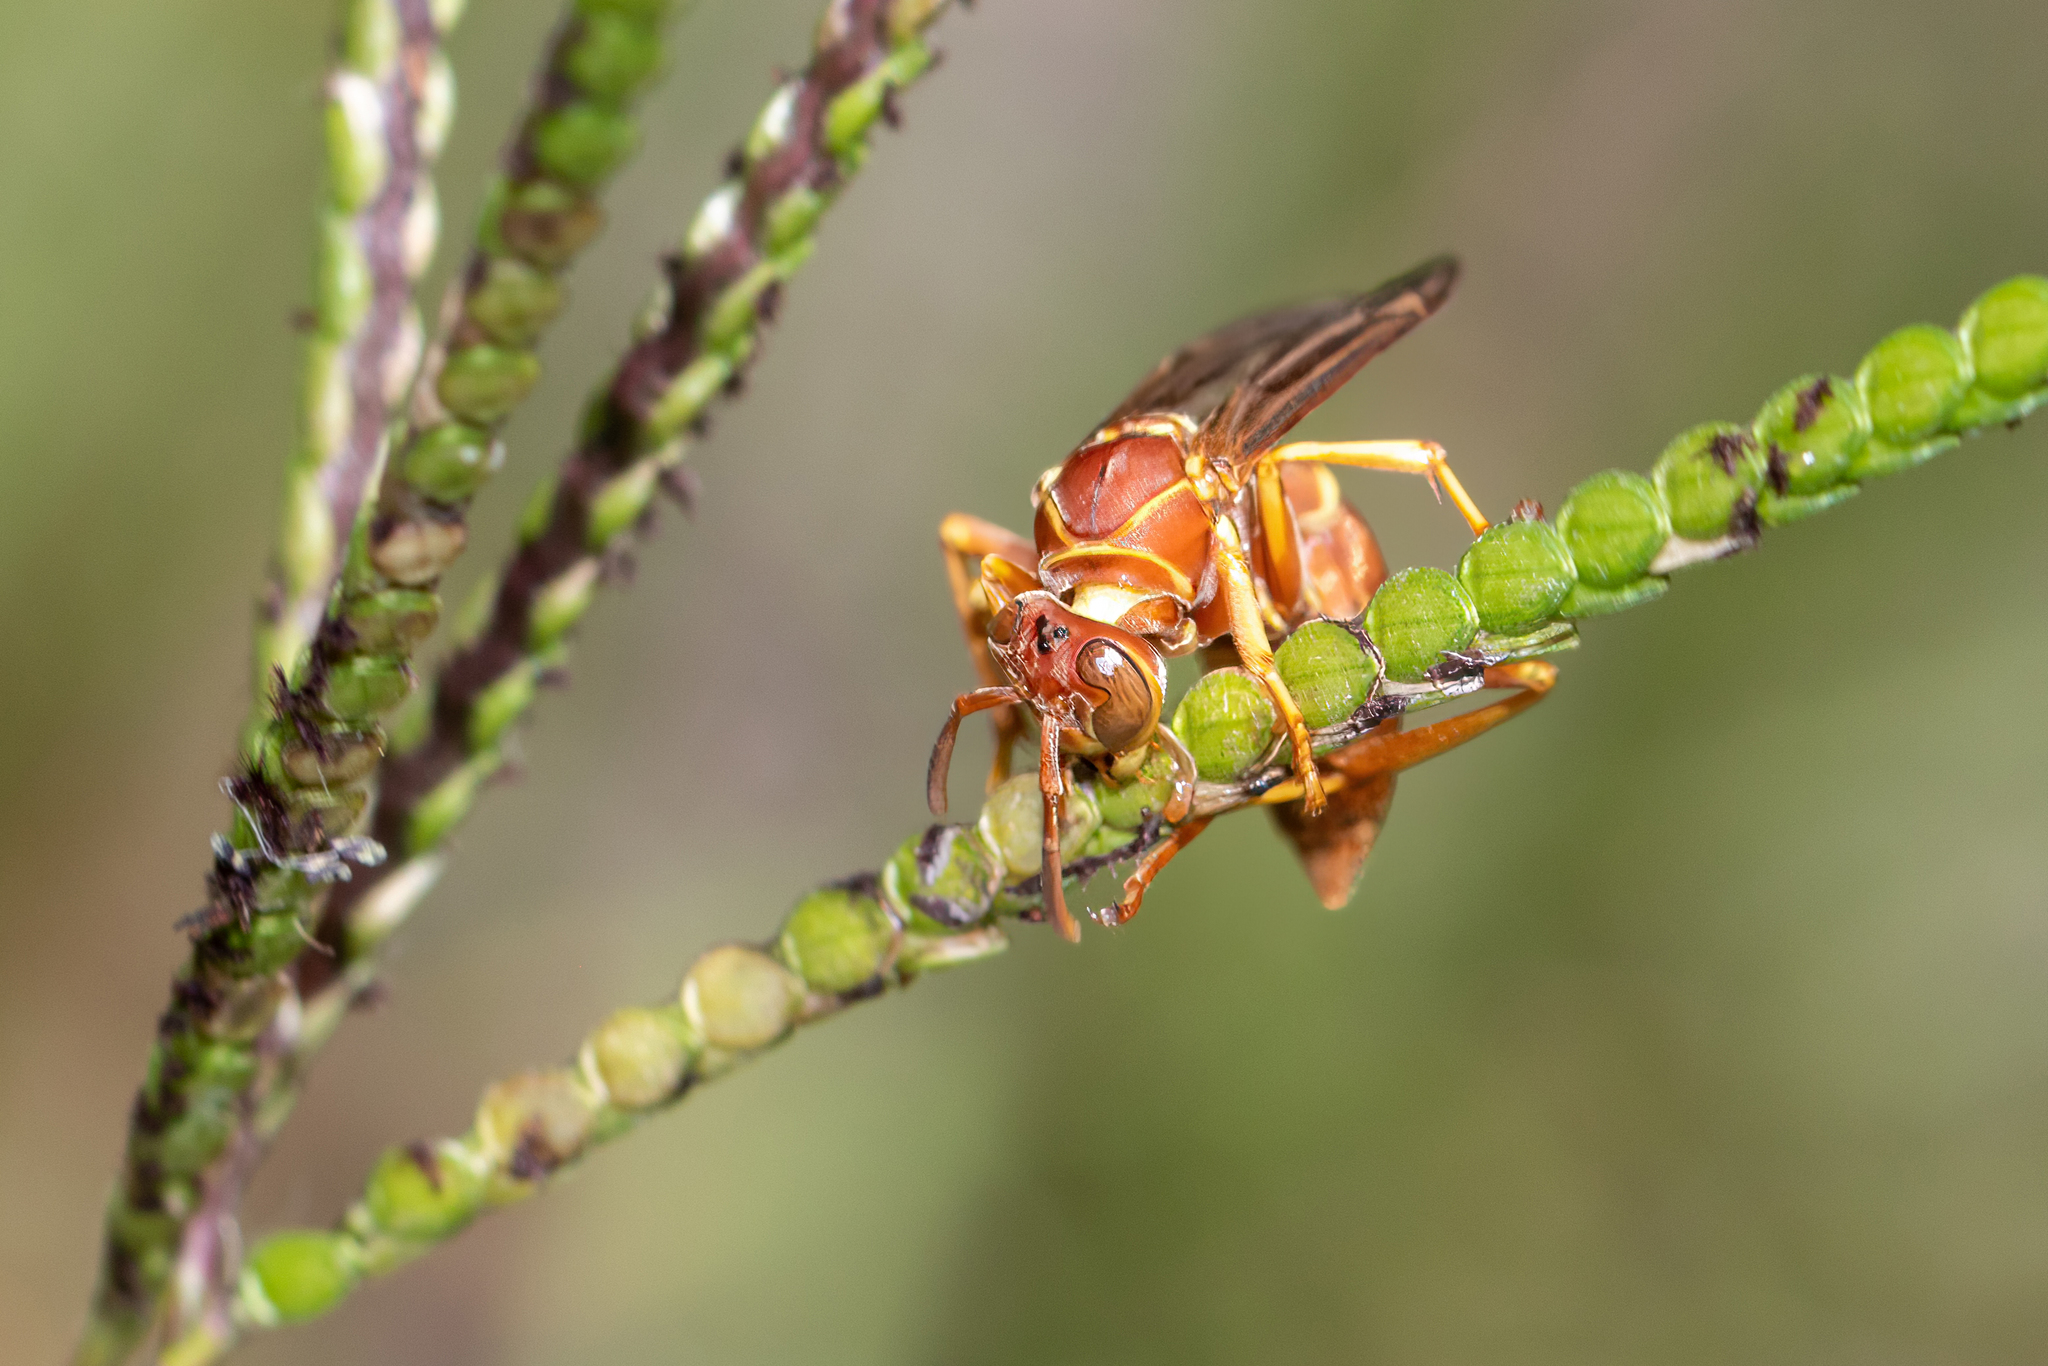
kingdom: Animalia
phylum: Arthropoda
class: Insecta
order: Hymenoptera
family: Eumenidae
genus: Polistes
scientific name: Polistes bellicosus
